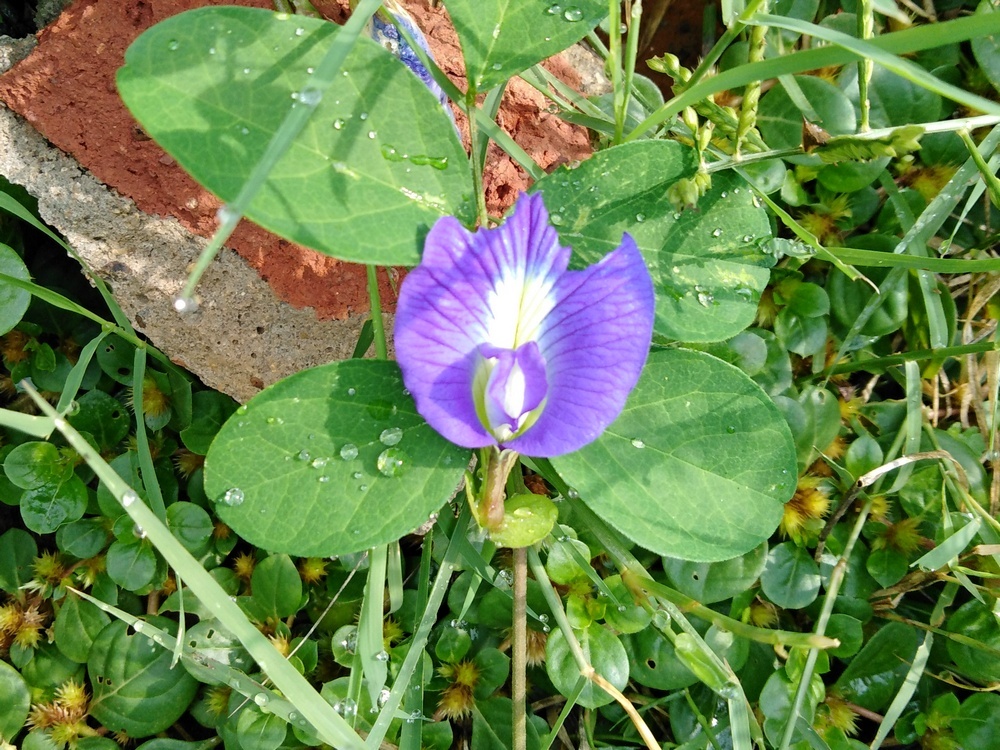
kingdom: Plantae
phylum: Tracheophyta
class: Magnoliopsida
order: Fabales
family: Fabaceae
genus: Clitoria
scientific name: Clitoria ternatea
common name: Asian pigeonwings
